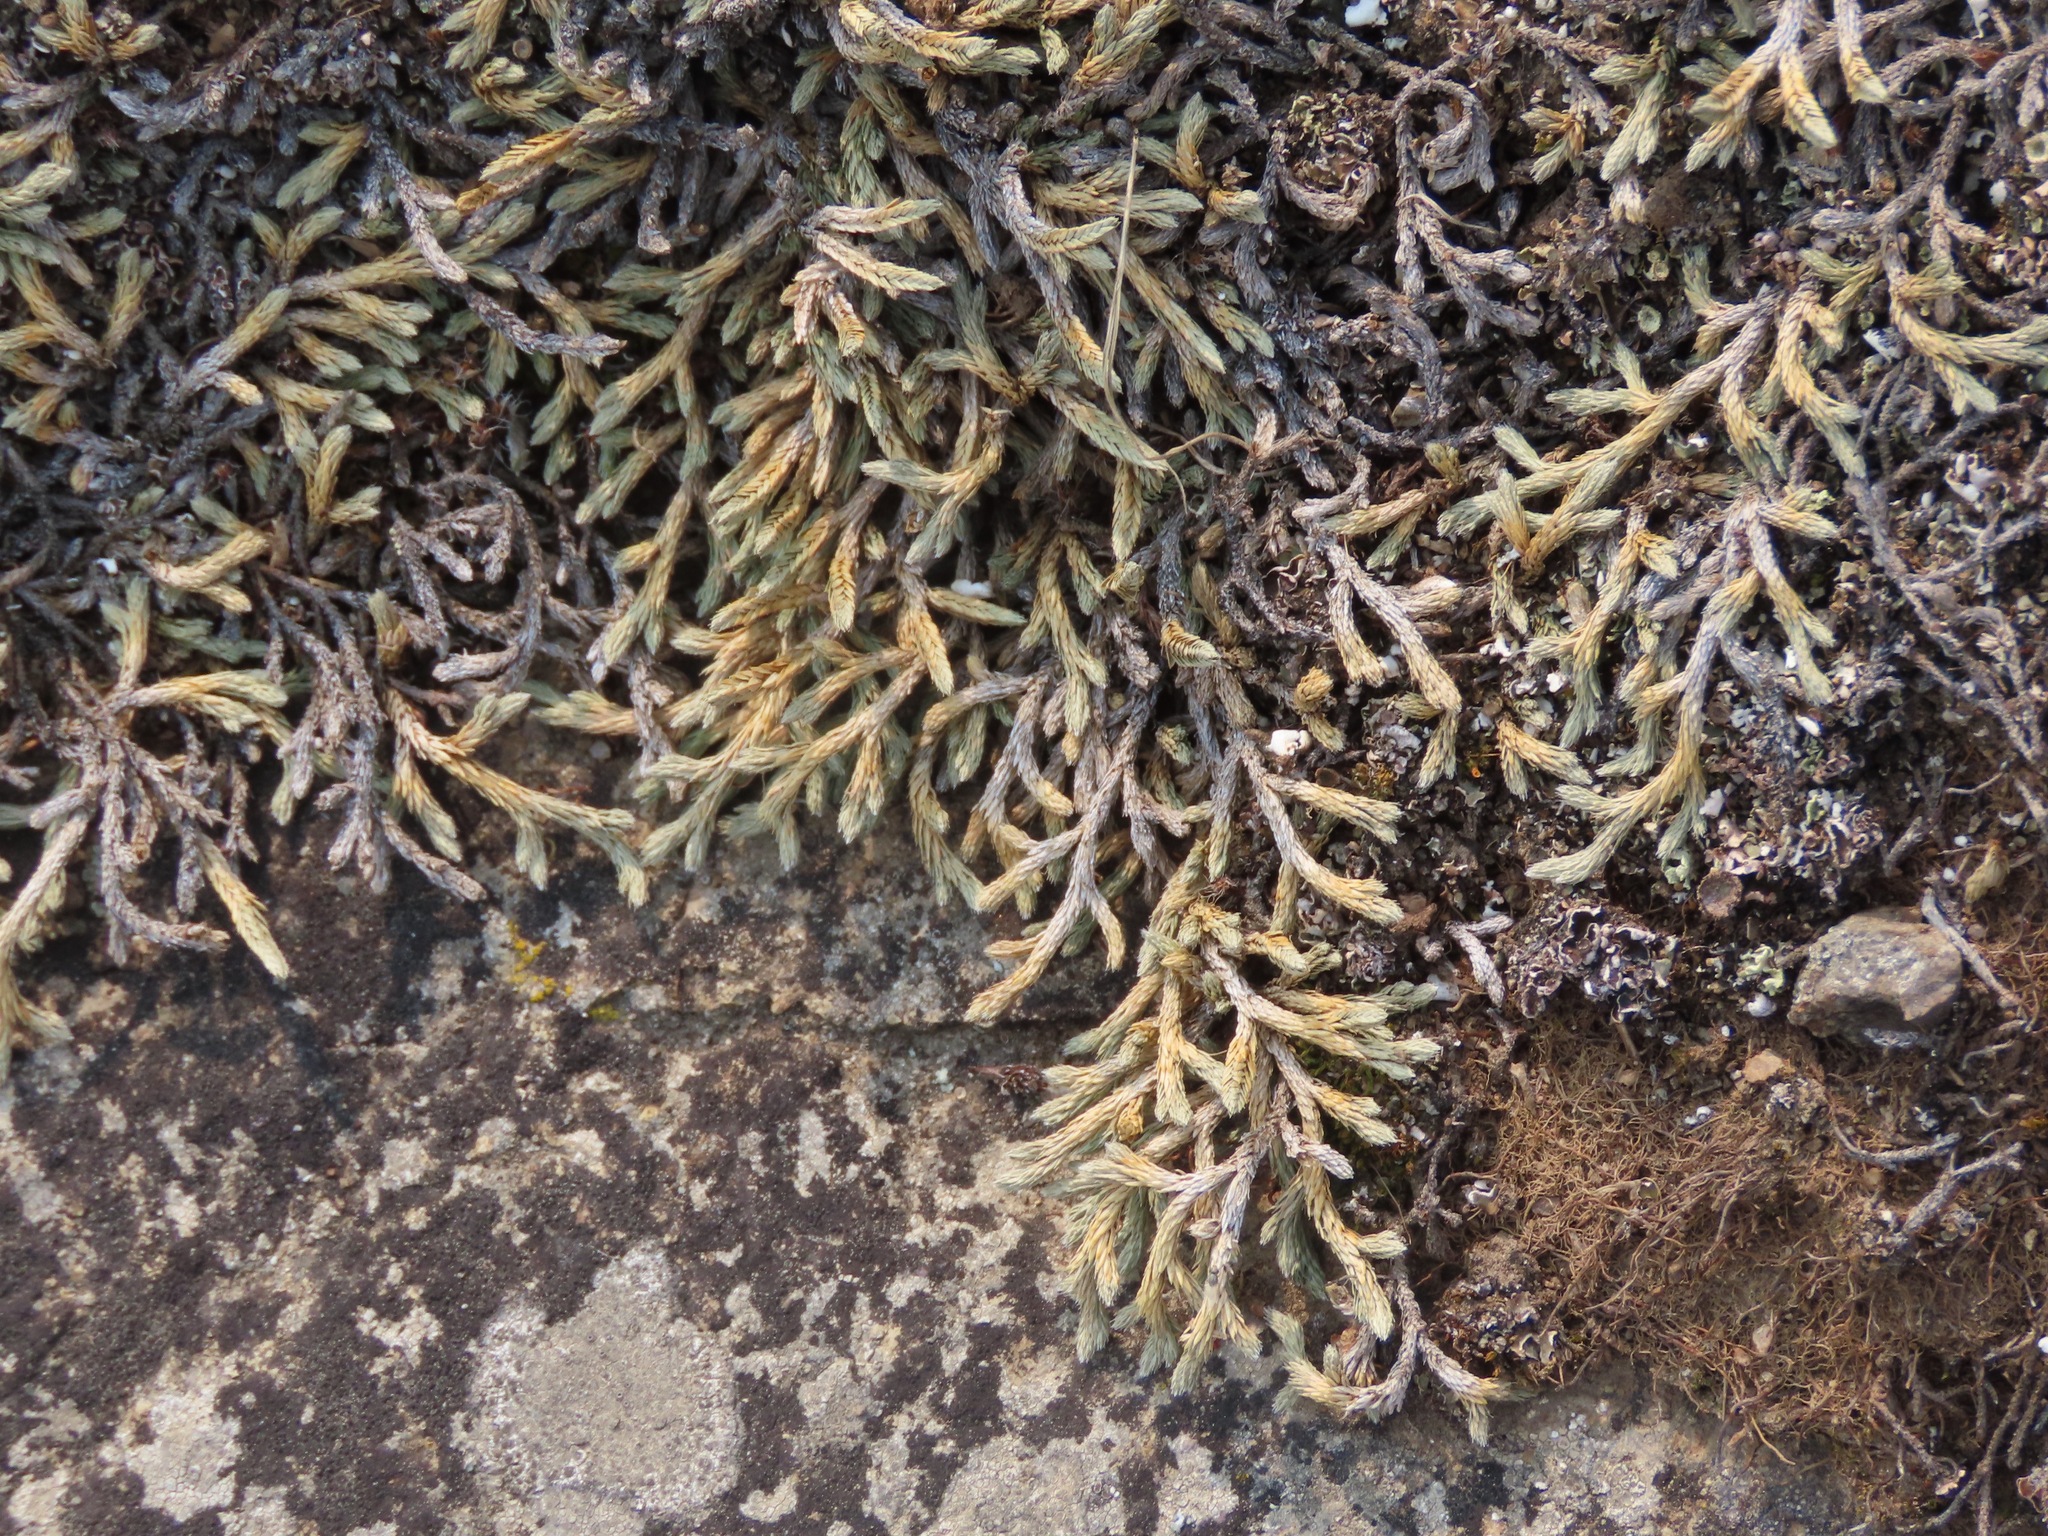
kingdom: Plantae
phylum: Tracheophyta
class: Lycopodiopsida
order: Selaginellales
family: Selaginellaceae
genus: Selaginella
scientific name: Selaginella wallacei
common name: Wallace's selaginella
